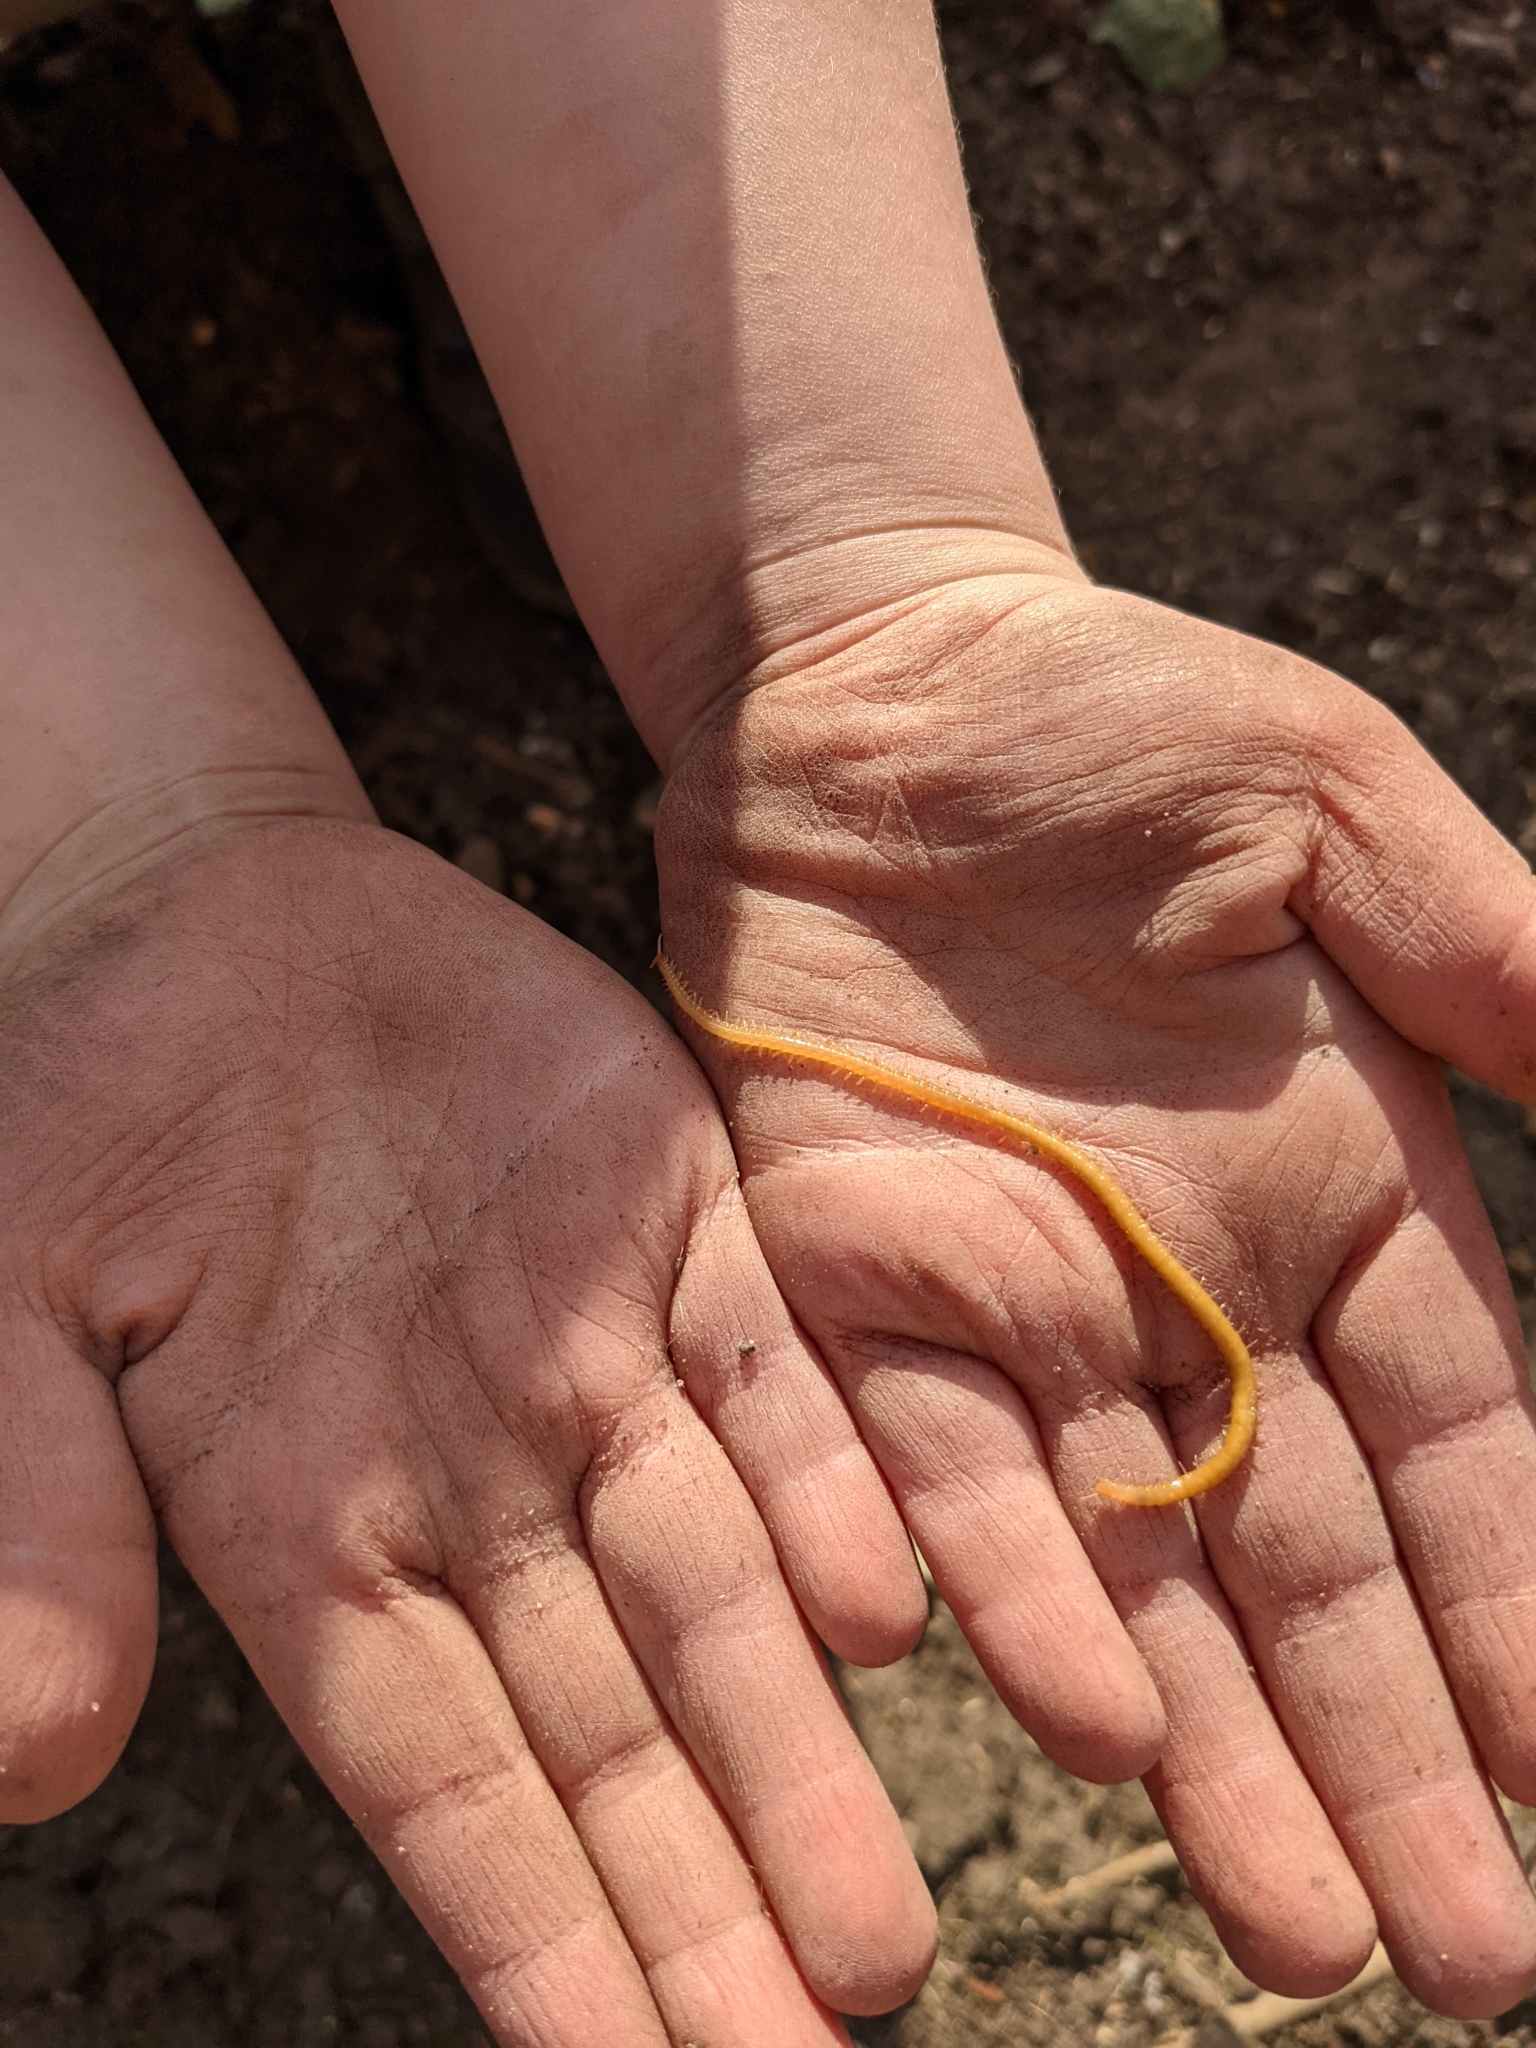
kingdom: Animalia
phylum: Arthropoda
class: Chilopoda
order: Geophilomorpha
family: Himantariidae
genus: Stigmatogaster
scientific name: Stigmatogaster subterranea
